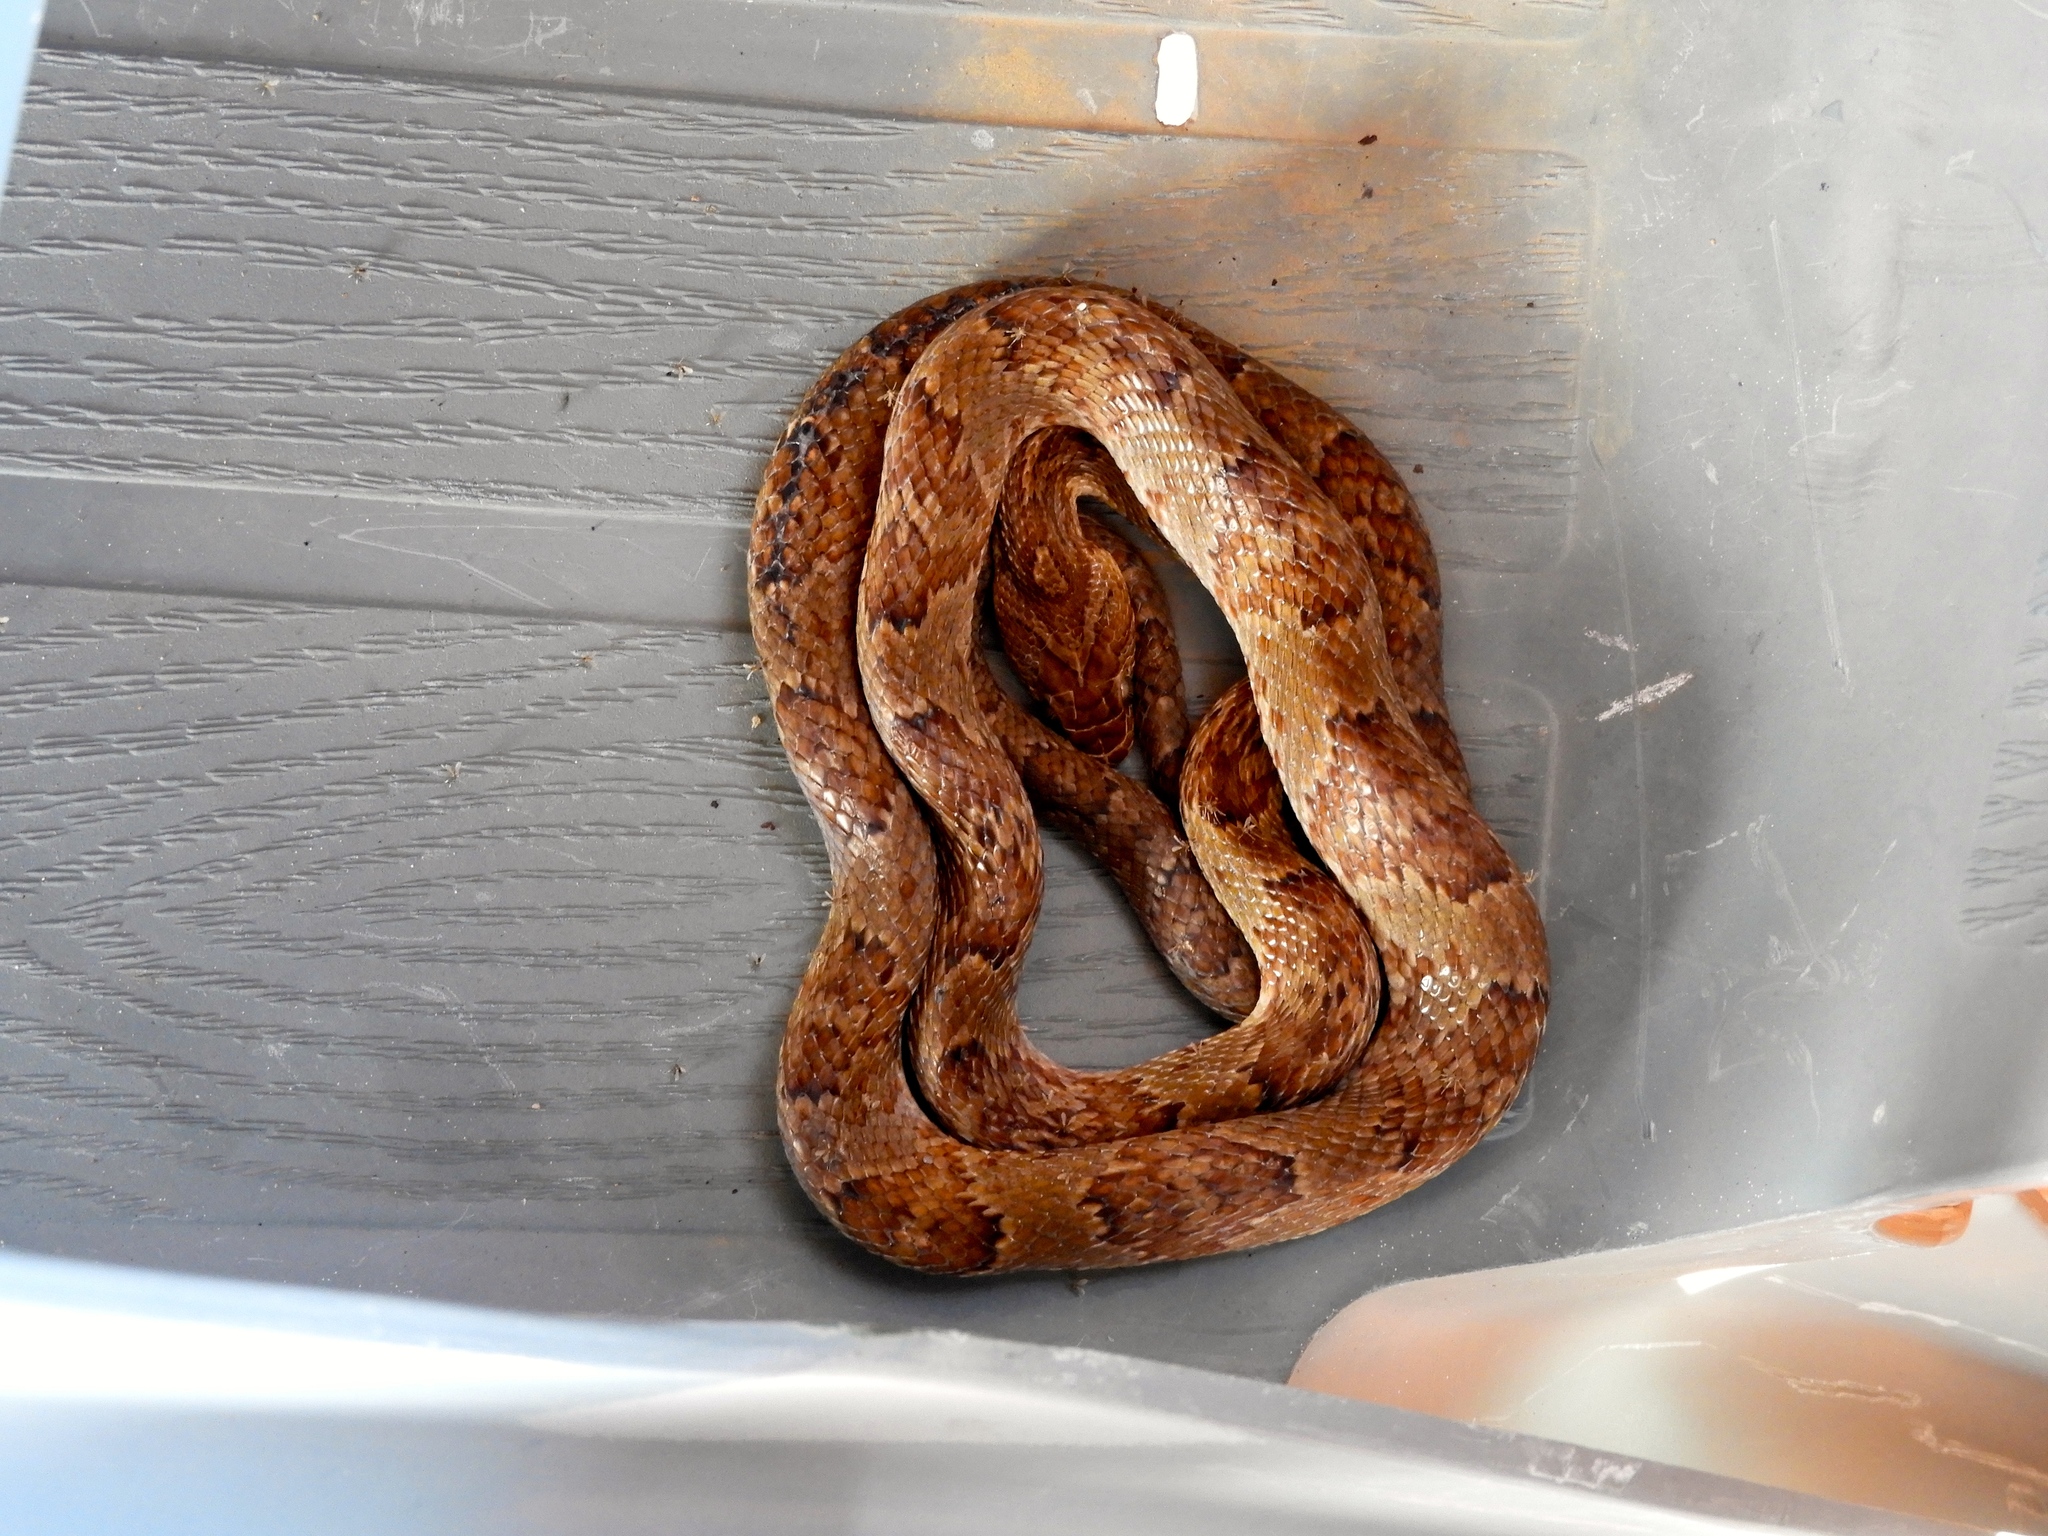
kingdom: Animalia
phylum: Chordata
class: Squamata
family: Colubridae
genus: Trimorphodon
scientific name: Trimorphodon paucimaculatus
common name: Sinaloan lyresnake
